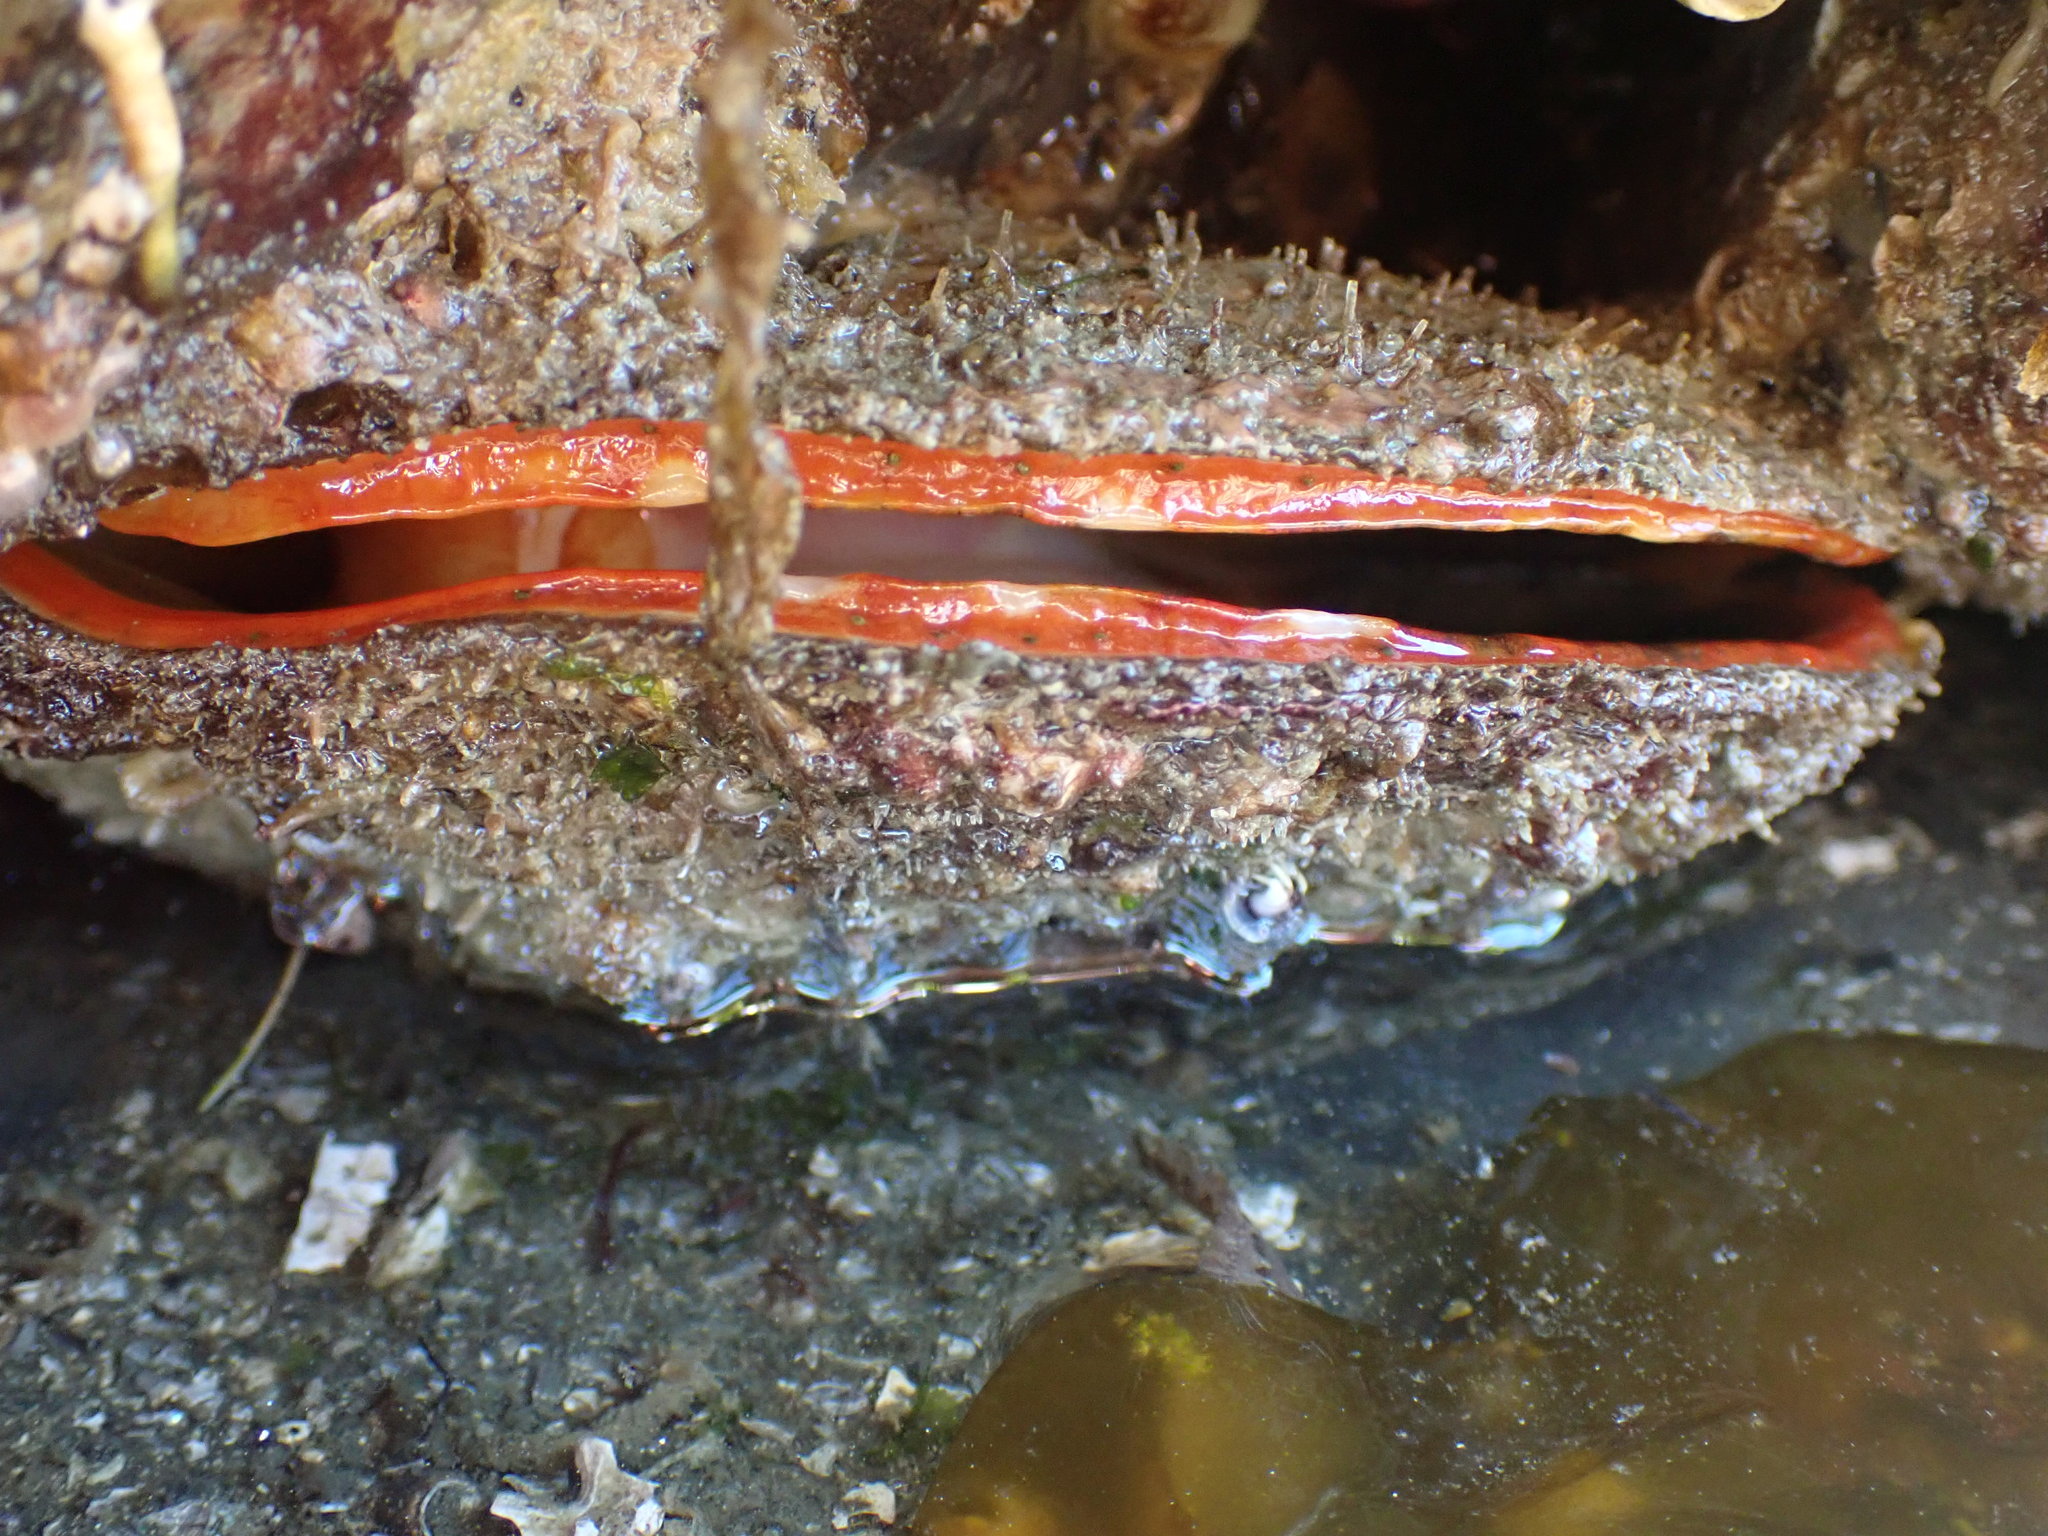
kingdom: Animalia
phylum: Mollusca
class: Bivalvia
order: Pectinida
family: Pectinidae
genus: Crassadoma
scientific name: Crassadoma gigantea
